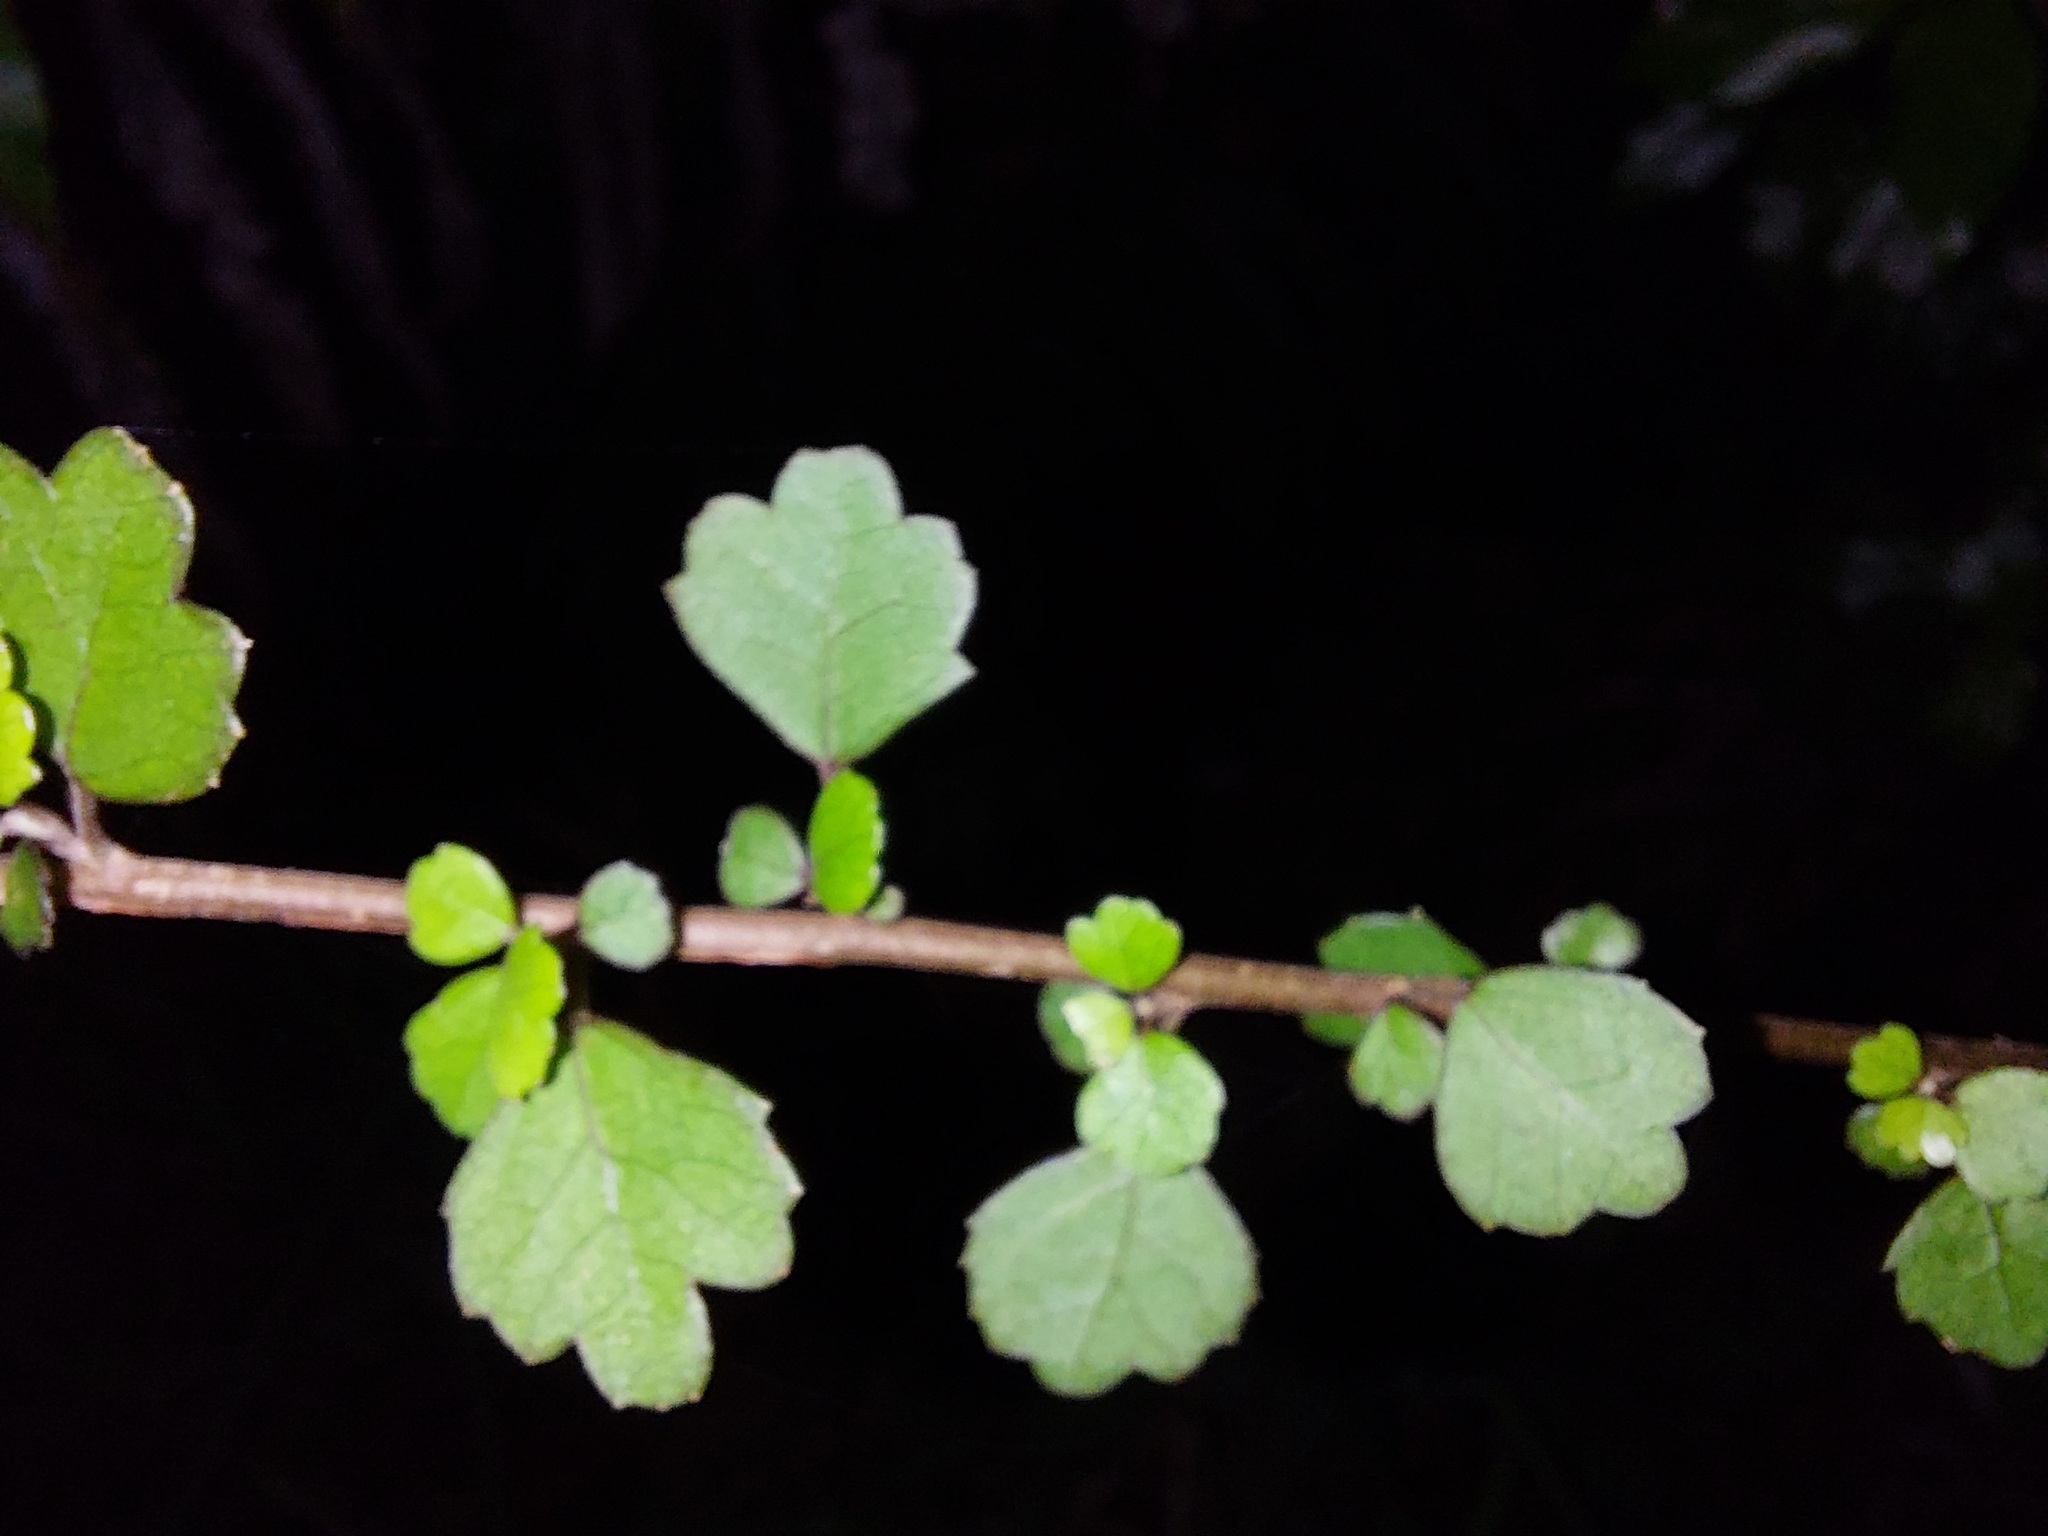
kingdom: Plantae
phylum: Tracheophyta
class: Magnoliopsida
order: Apiales
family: Pennantiaceae
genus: Pennantia
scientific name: Pennantia corymbosa
